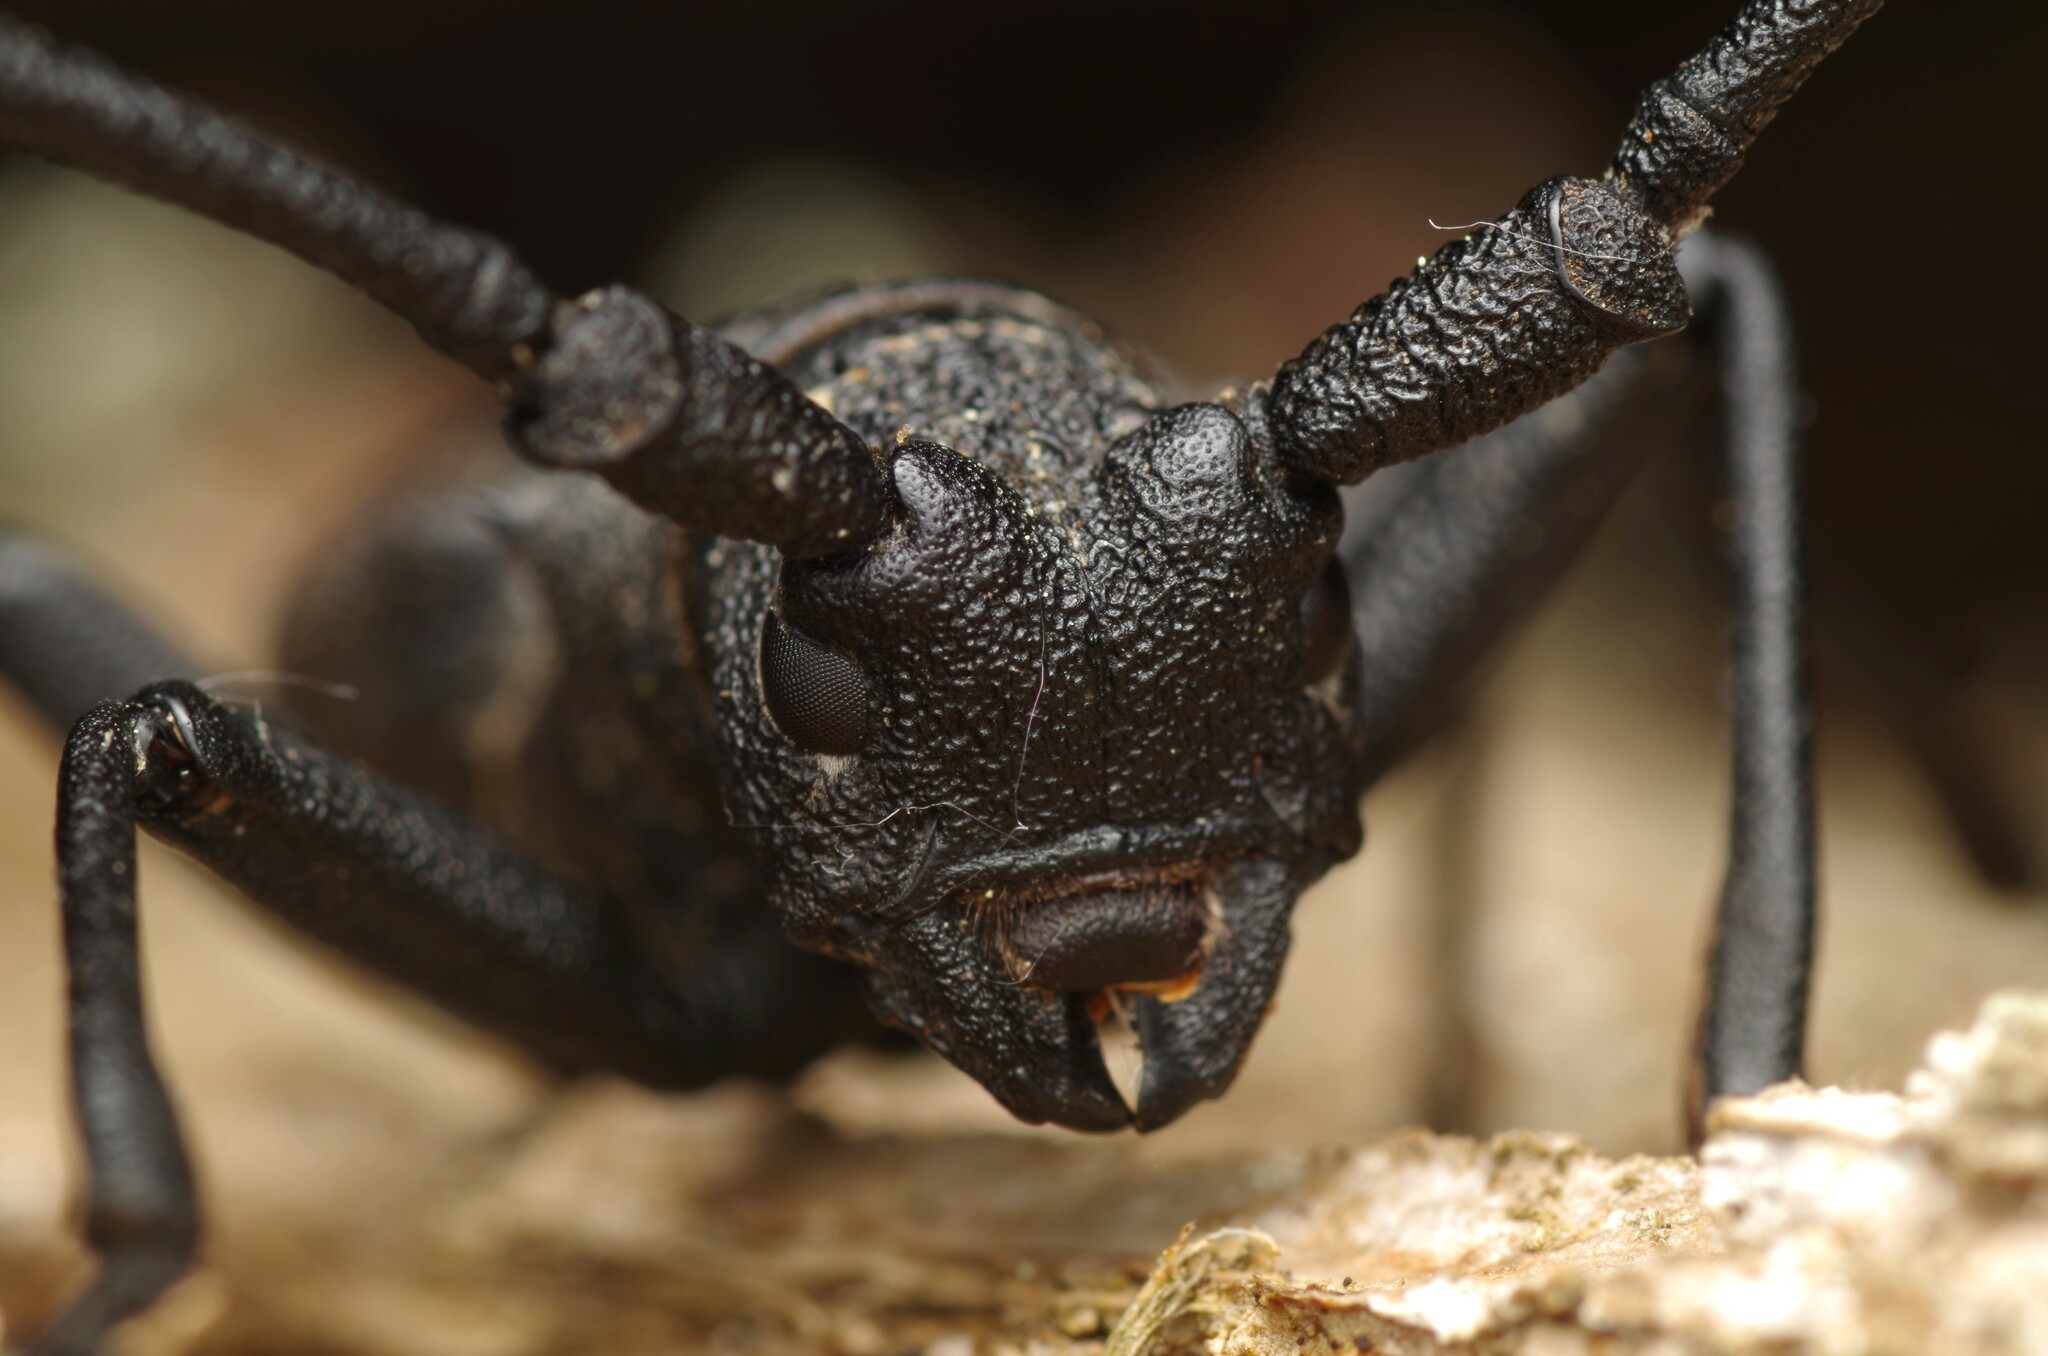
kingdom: Animalia
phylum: Arthropoda
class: Insecta
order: Coleoptera
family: Cerambycidae
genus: Morimus
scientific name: Morimus asper
